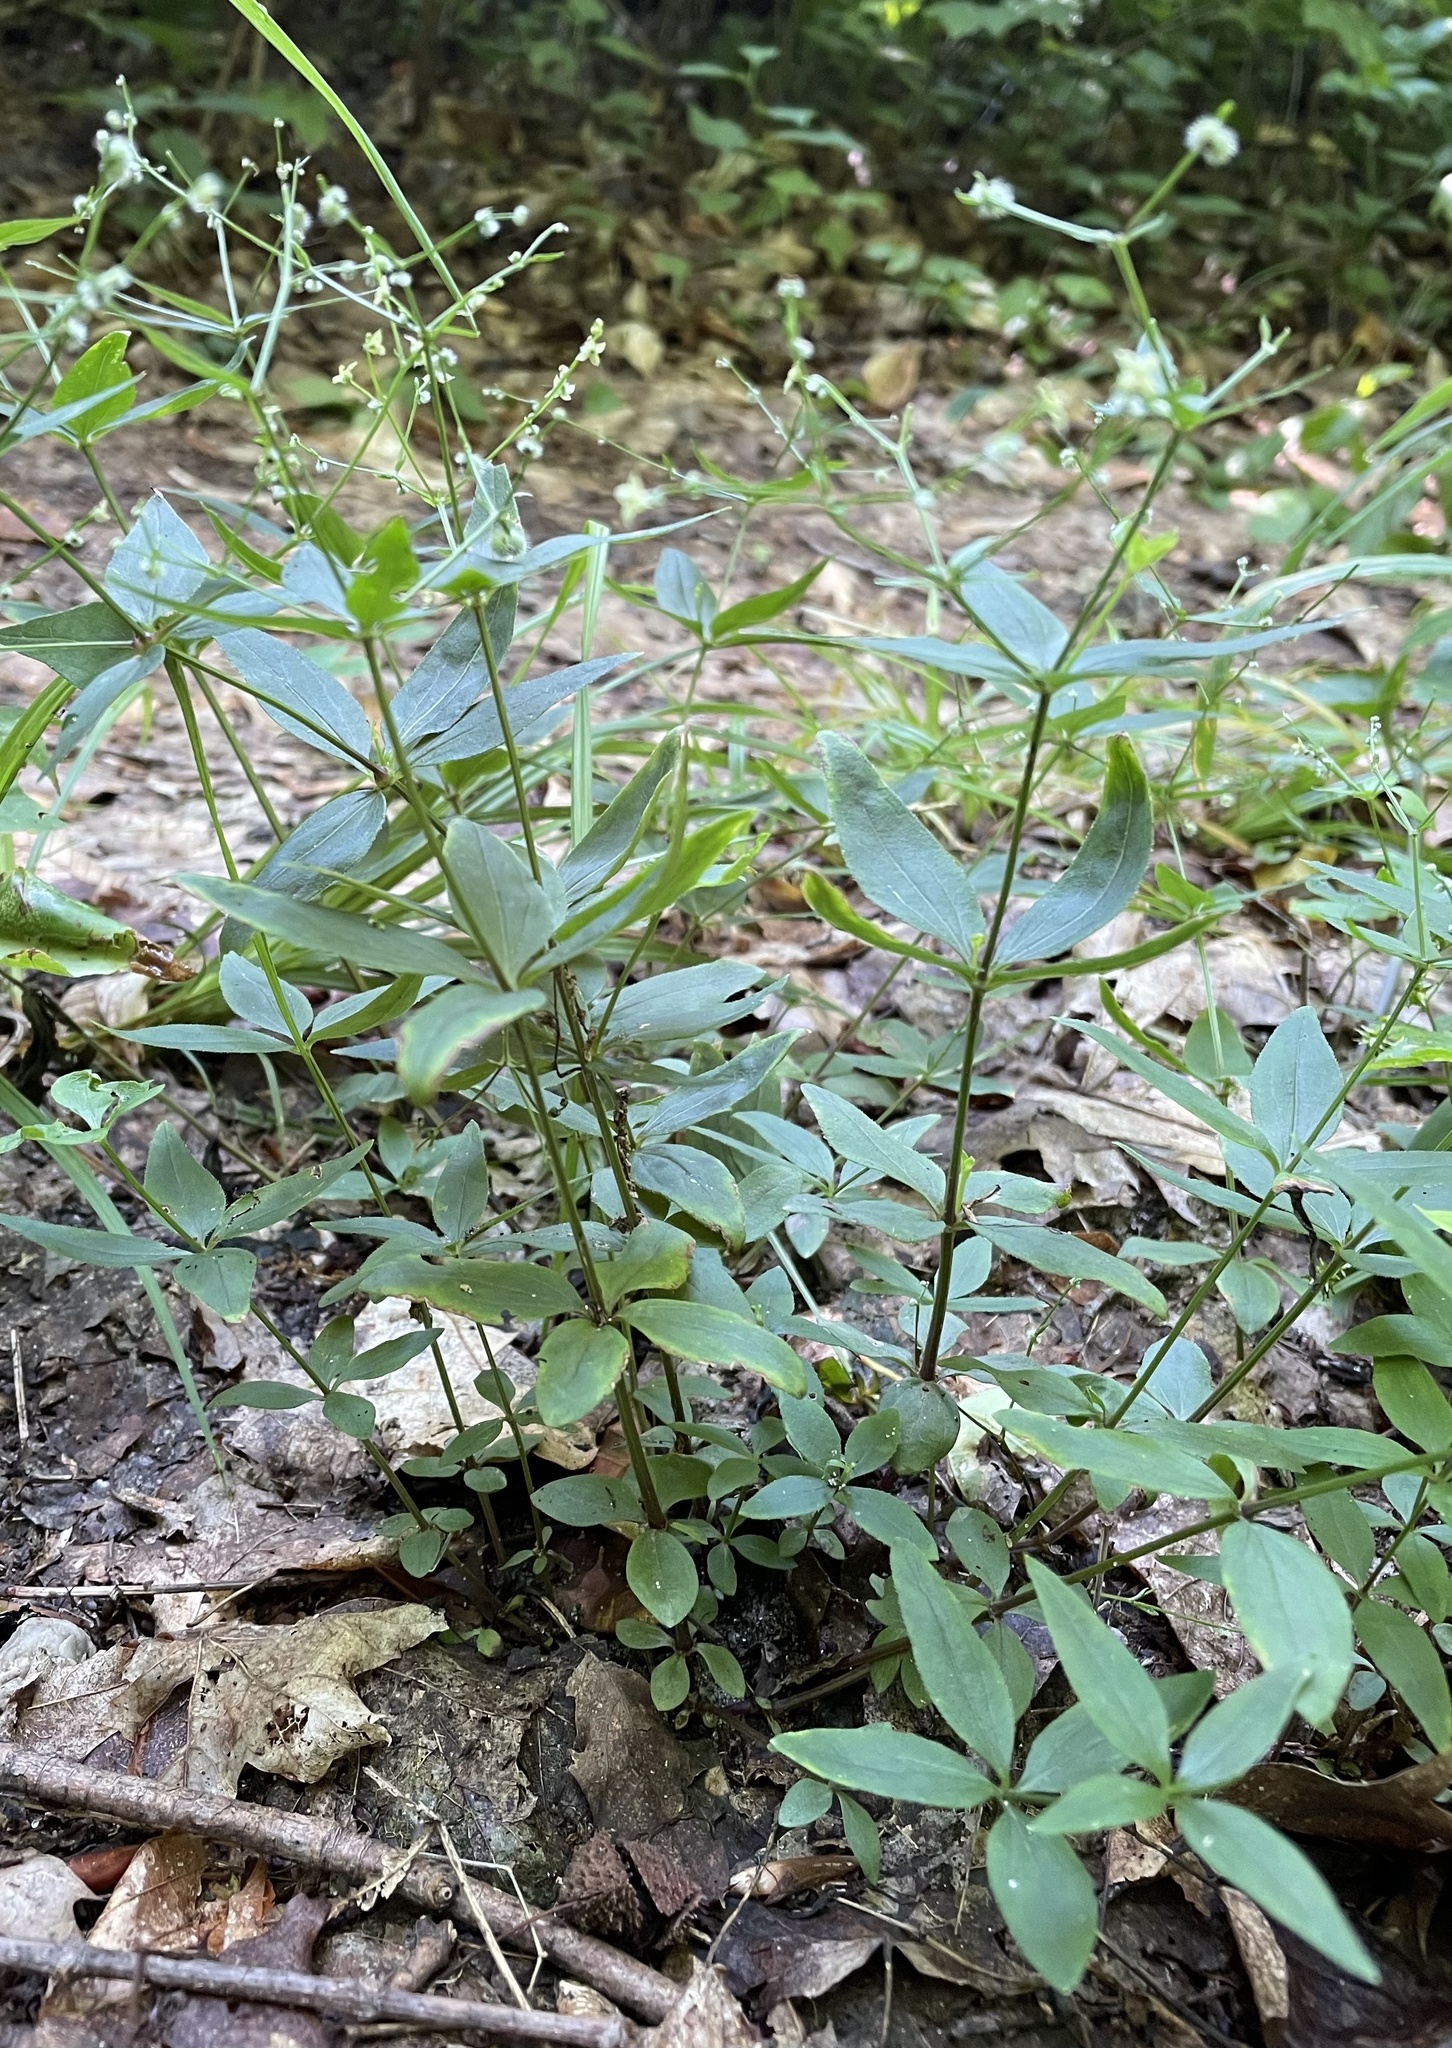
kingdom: Plantae
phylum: Tracheophyta
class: Magnoliopsida
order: Gentianales
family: Rubiaceae
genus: Galium
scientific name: Galium circaezans
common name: Forest bedstraw
